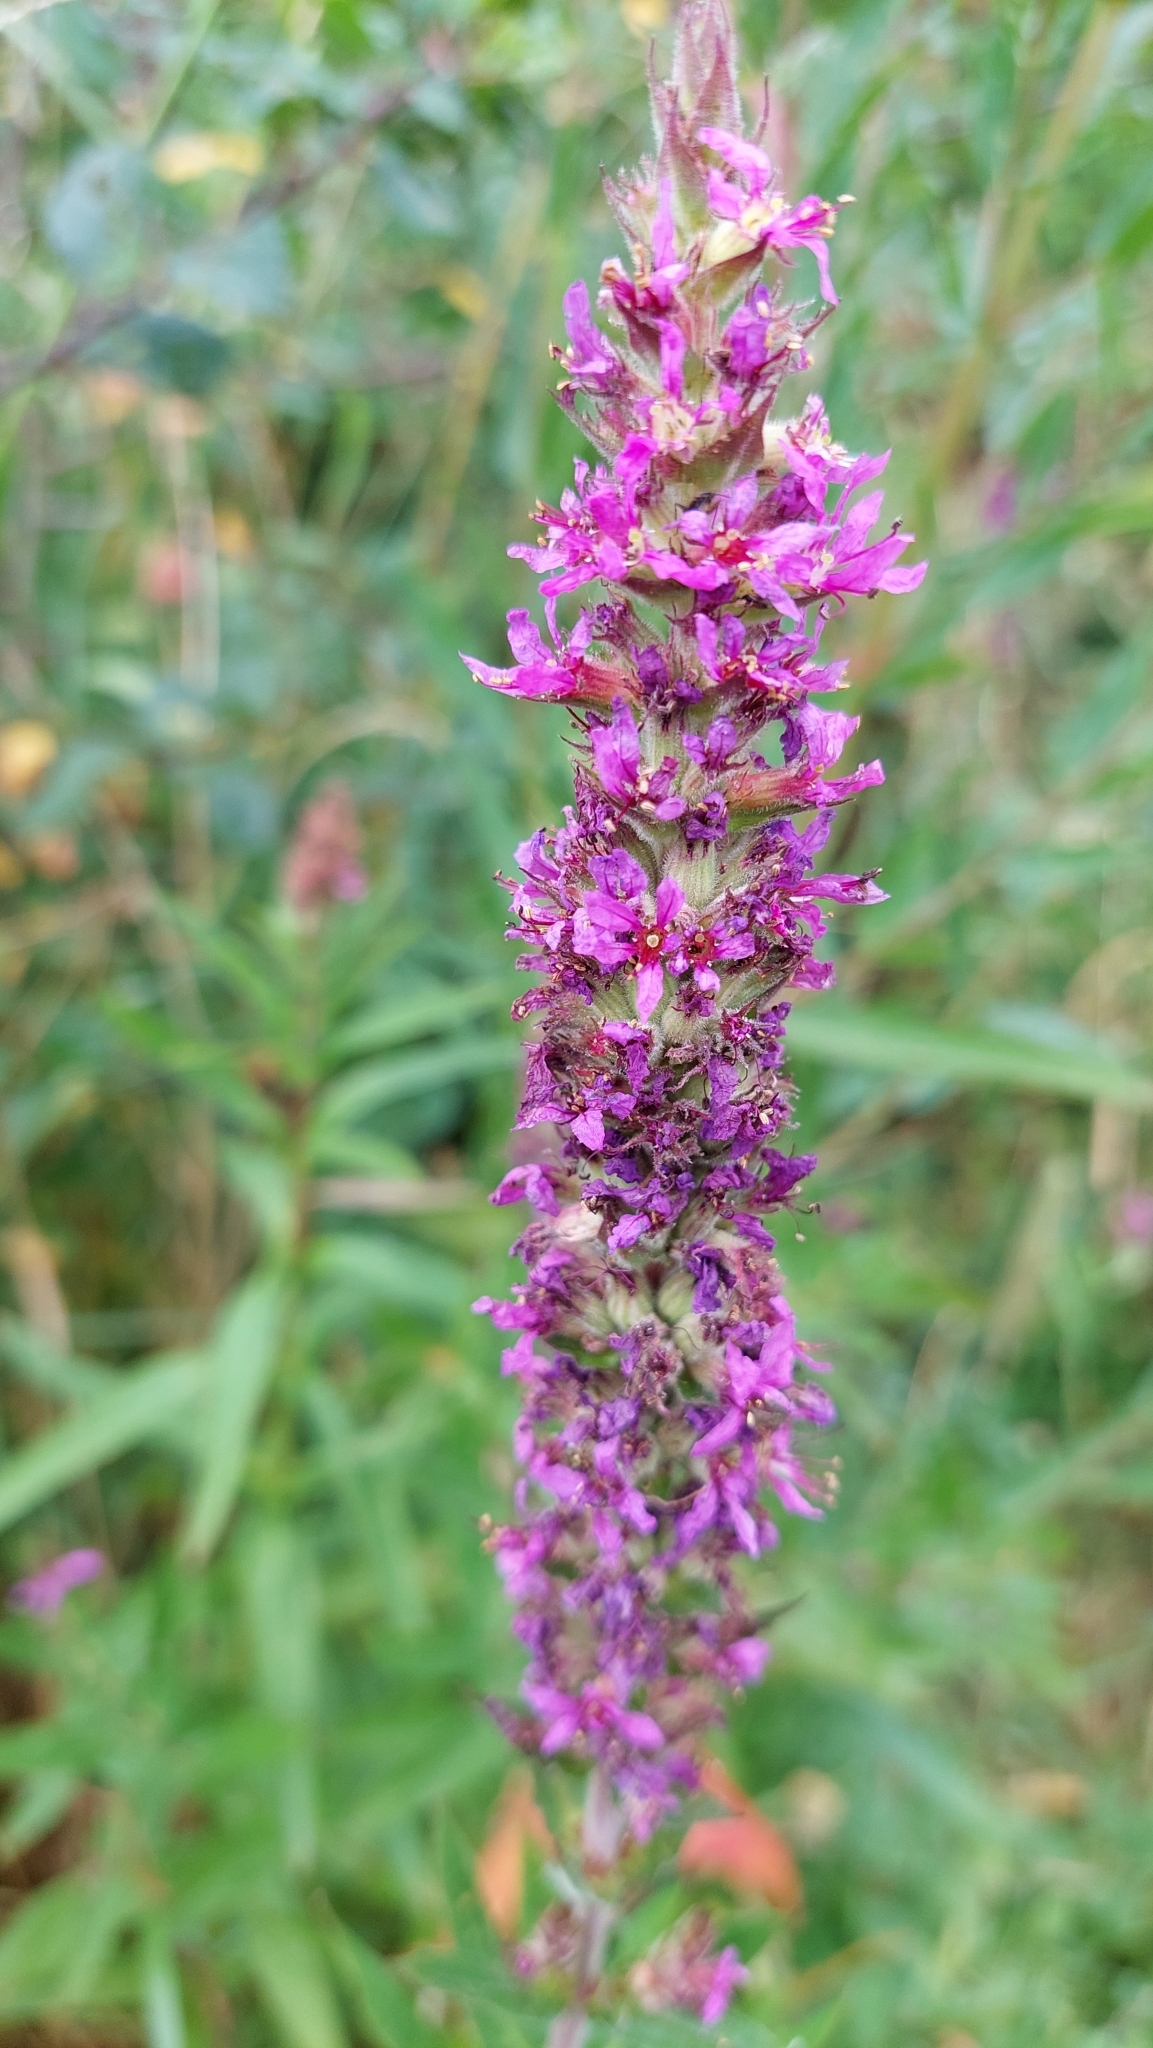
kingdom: Plantae
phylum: Tracheophyta
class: Magnoliopsida
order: Myrtales
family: Lythraceae
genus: Lythrum
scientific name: Lythrum salicaria
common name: Purple loosestrife
